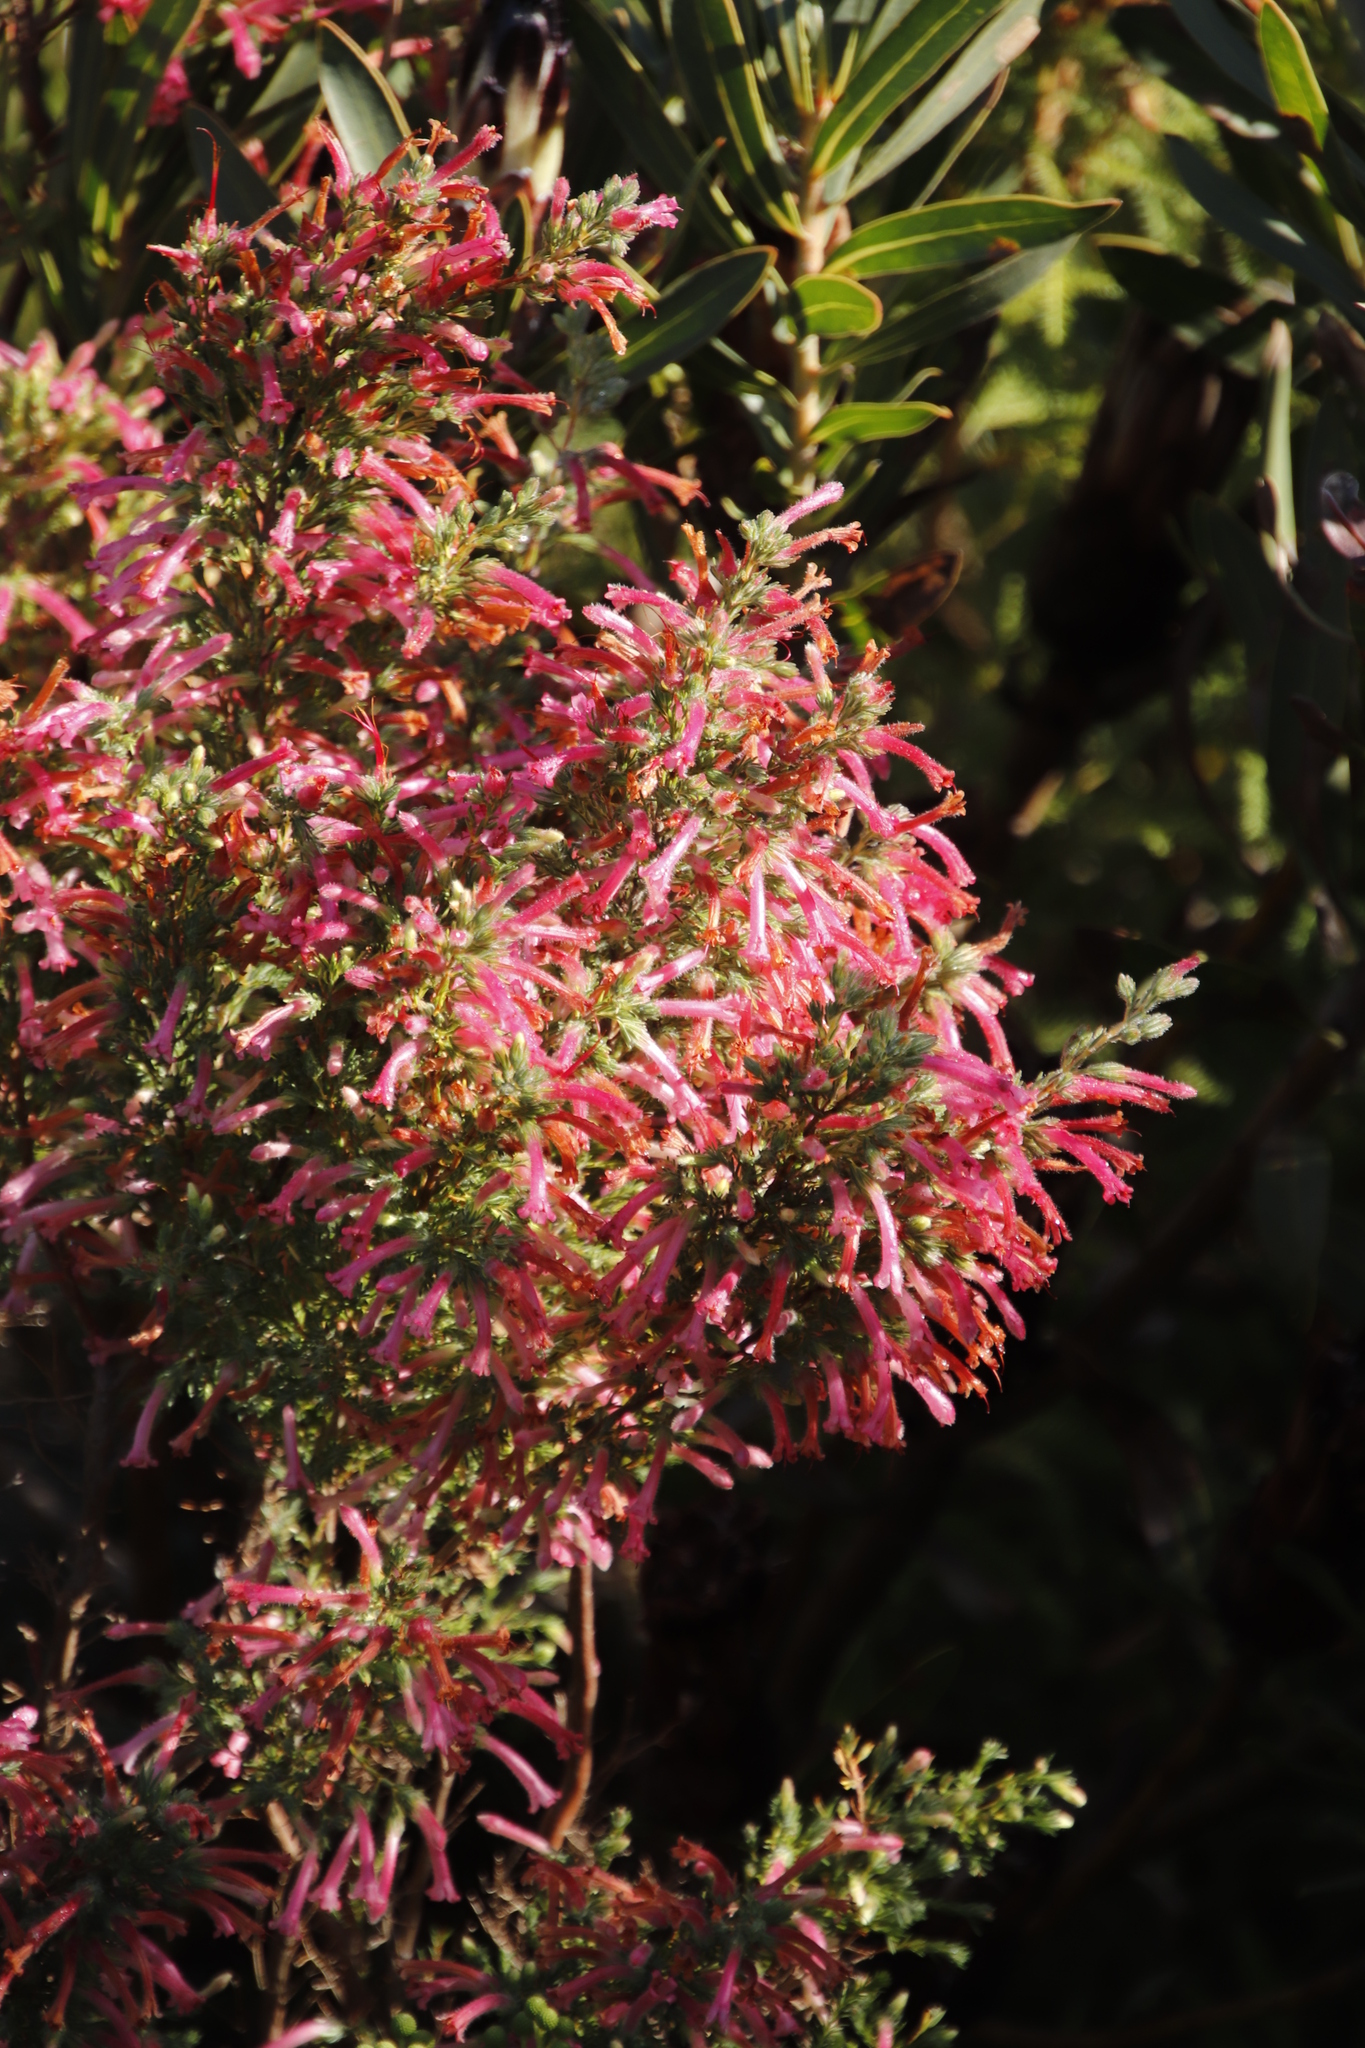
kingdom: Plantae
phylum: Tracheophyta
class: Magnoliopsida
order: Ericales
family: Ericaceae
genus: Erica
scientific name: Erica curviflora
